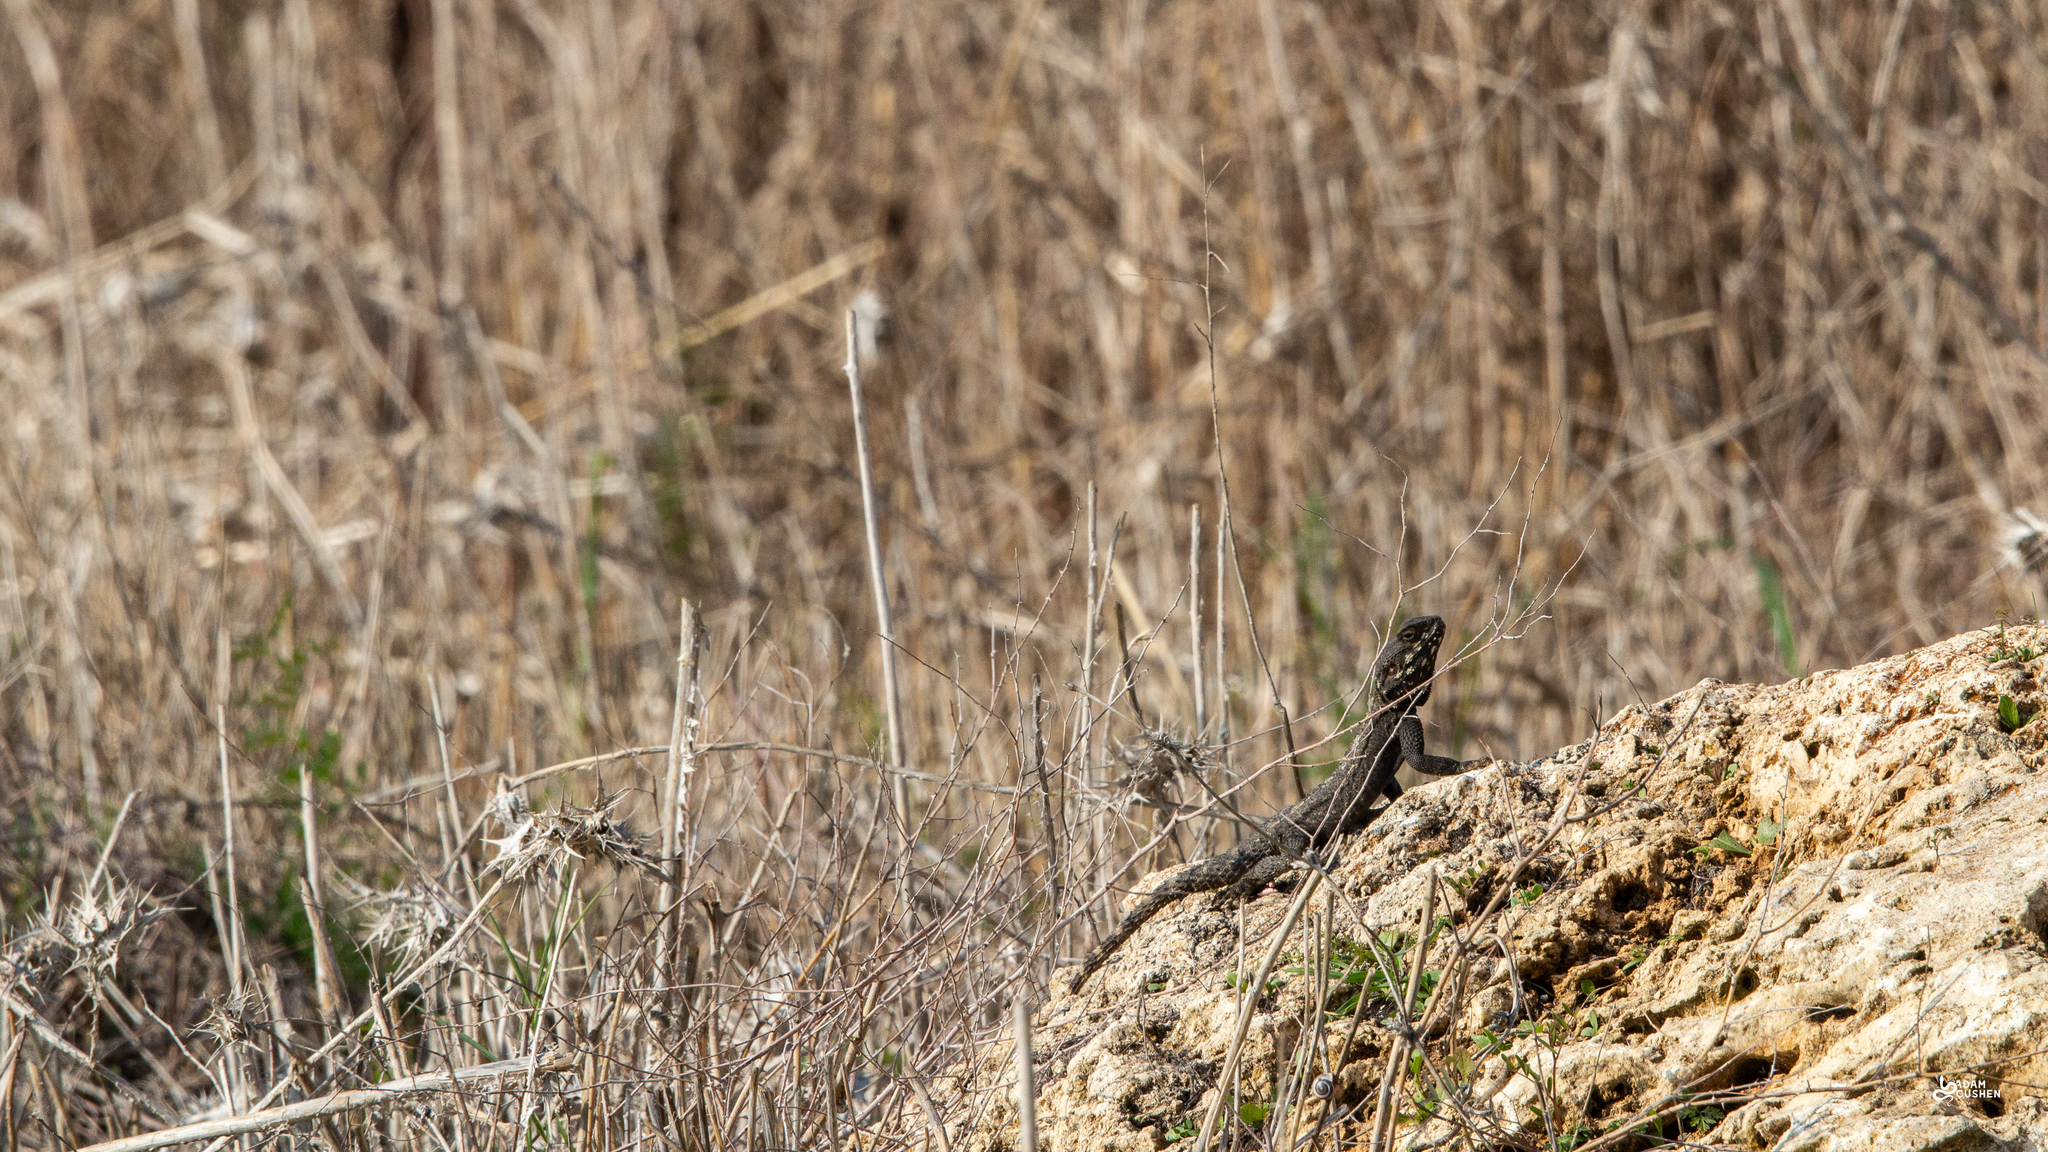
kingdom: Animalia
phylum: Chordata
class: Squamata
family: Agamidae
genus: Laudakia
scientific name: Laudakia vulgaris
